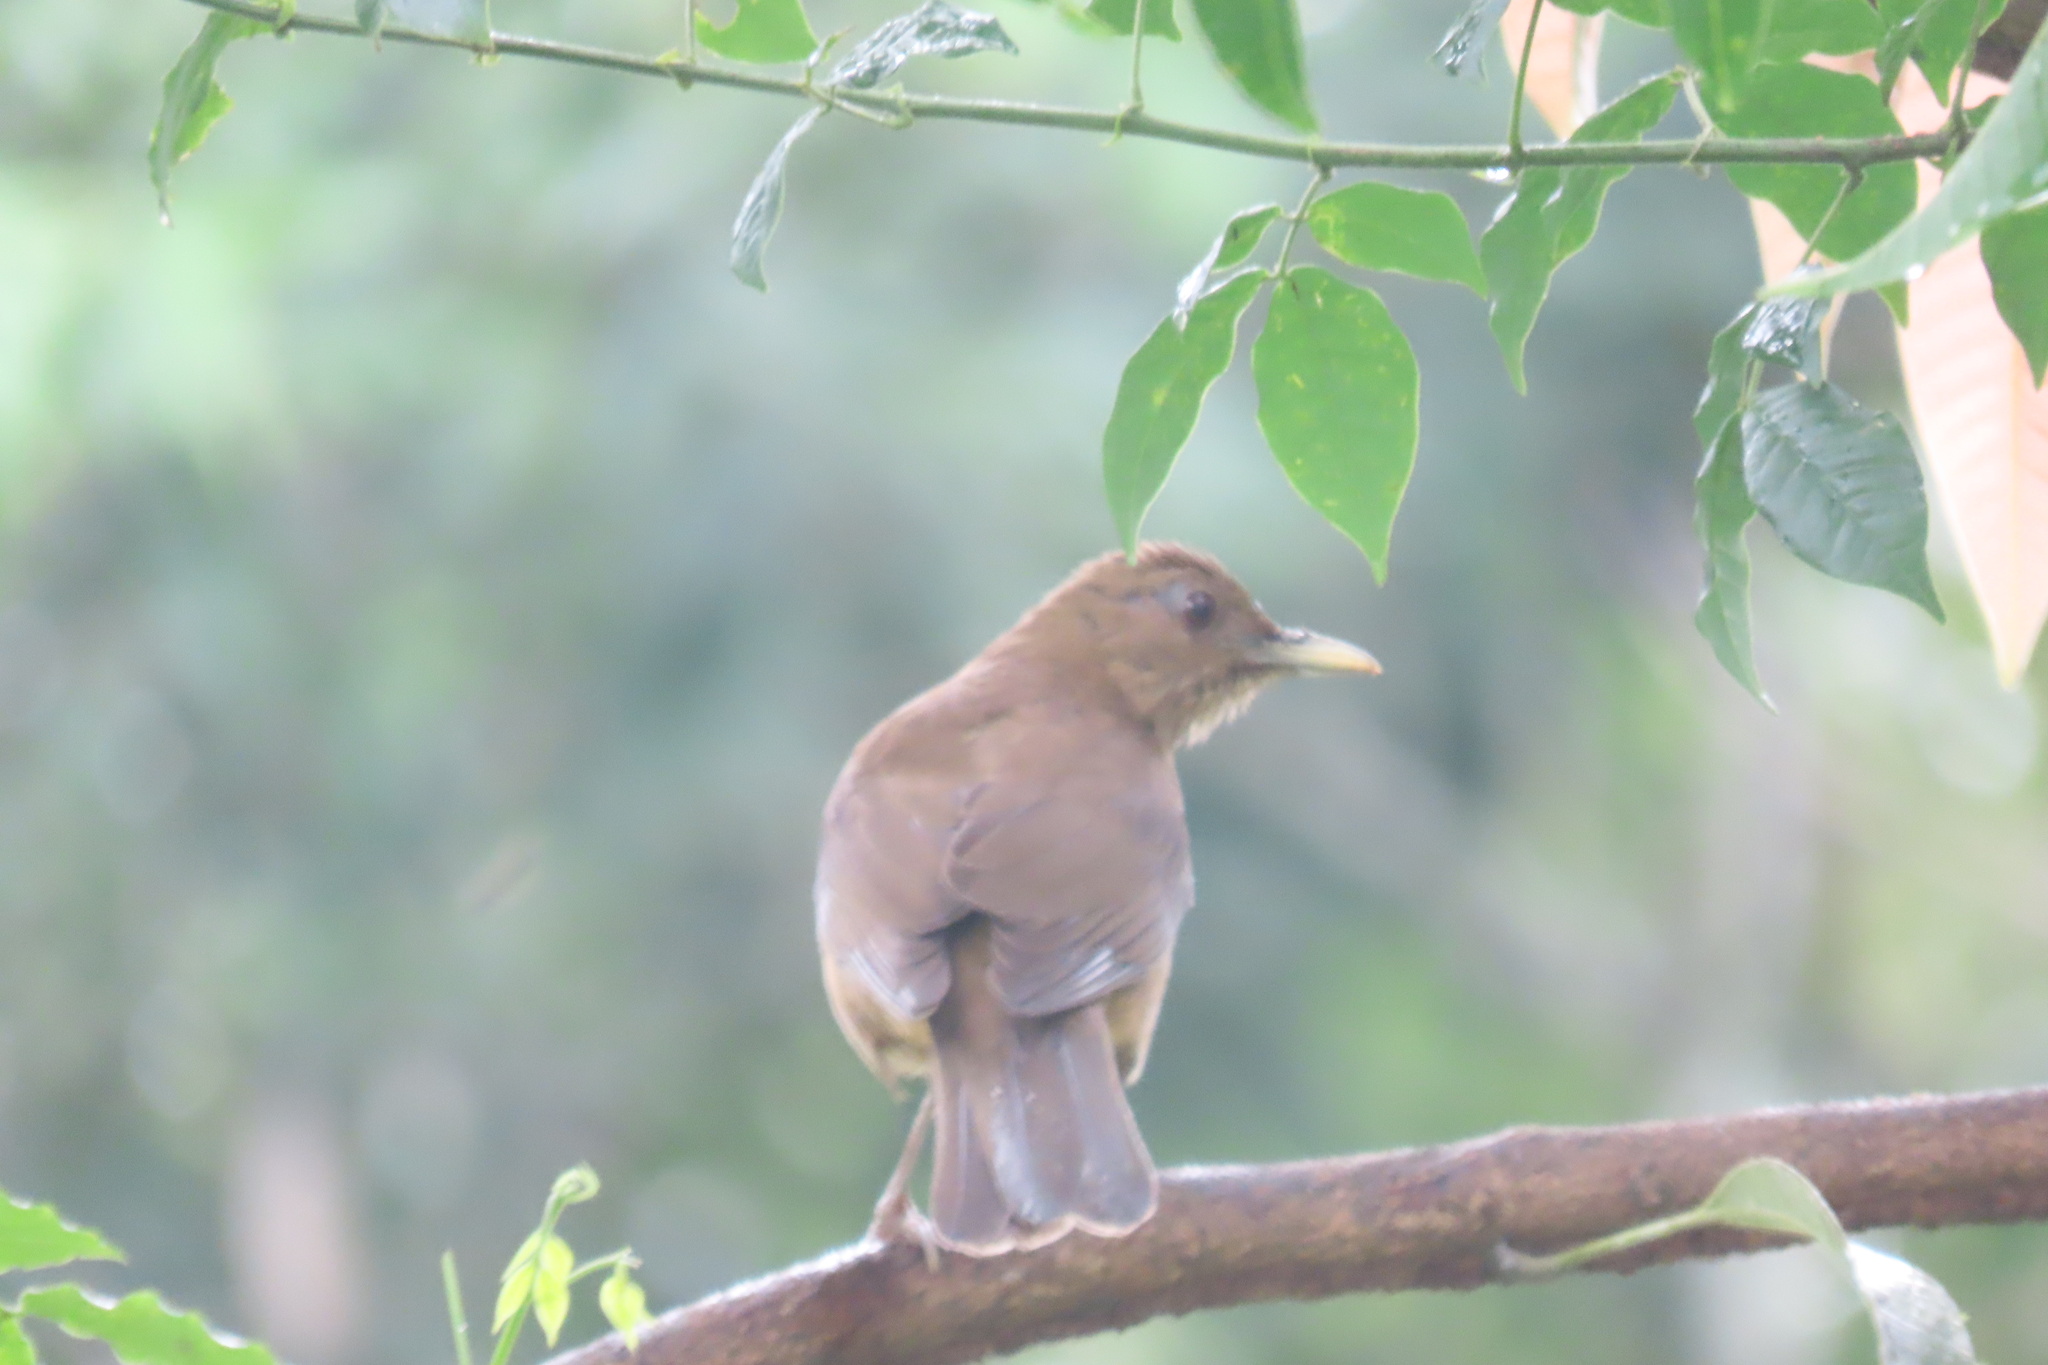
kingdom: Animalia
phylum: Chordata
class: Aves
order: Passeriformes
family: Turdidae
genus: Turdus
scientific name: Turdus grayi
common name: Clay-colored thrush
